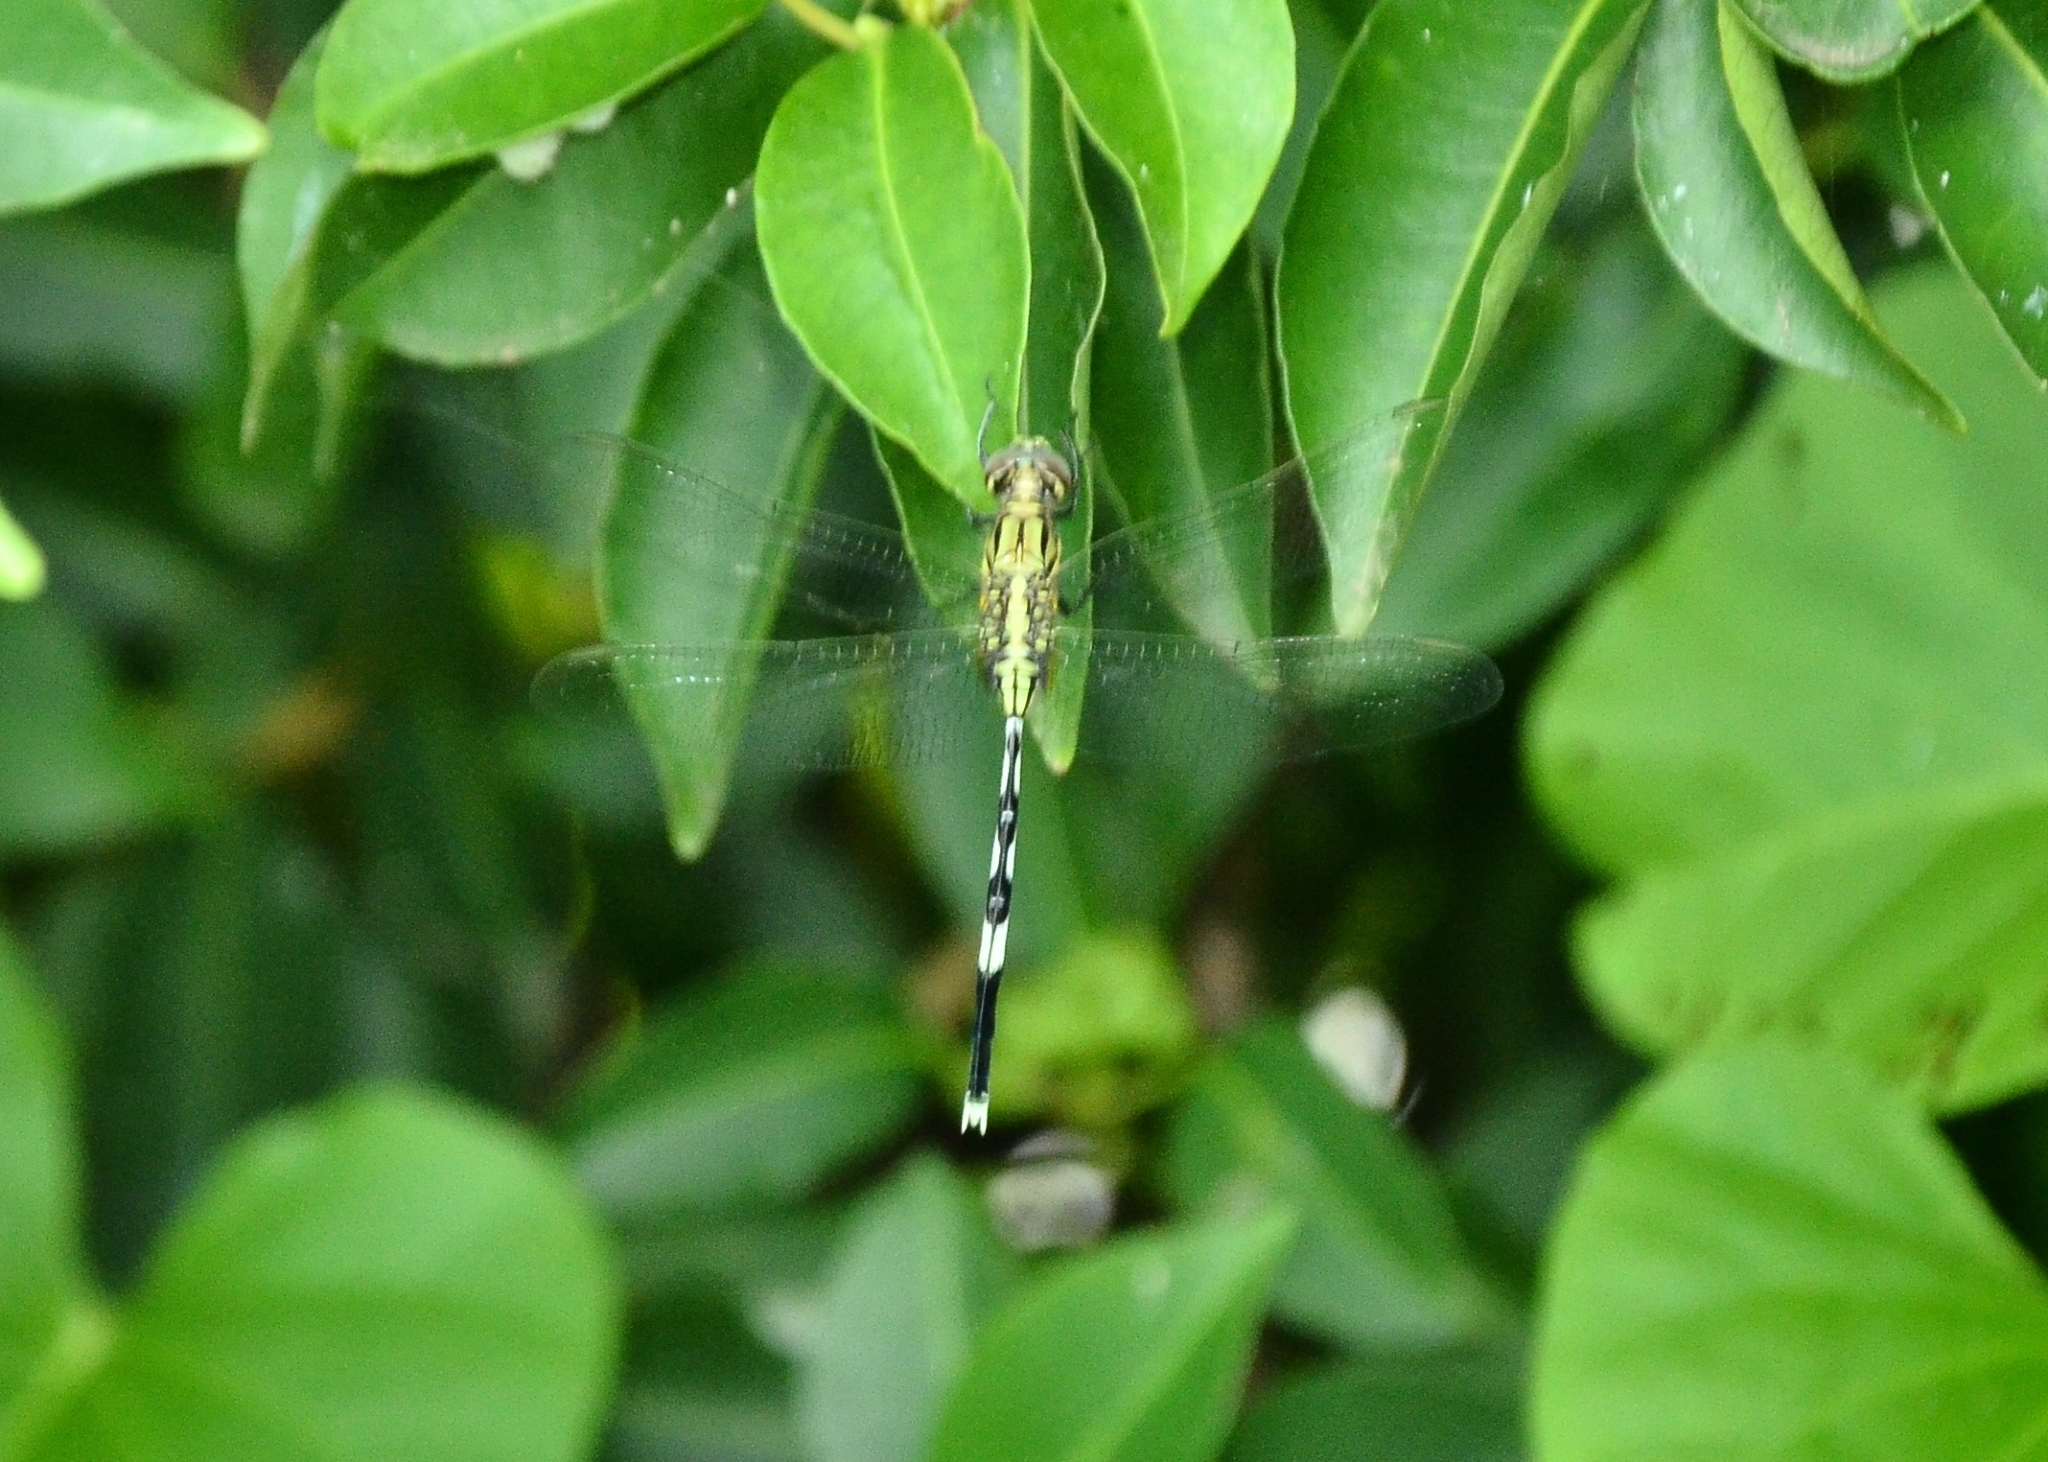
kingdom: Animalia
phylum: Arthropoda
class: Insecta
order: Odonata
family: Libellulidae
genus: Orthetrum
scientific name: Orthetrum sabina
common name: Slender skimmer
